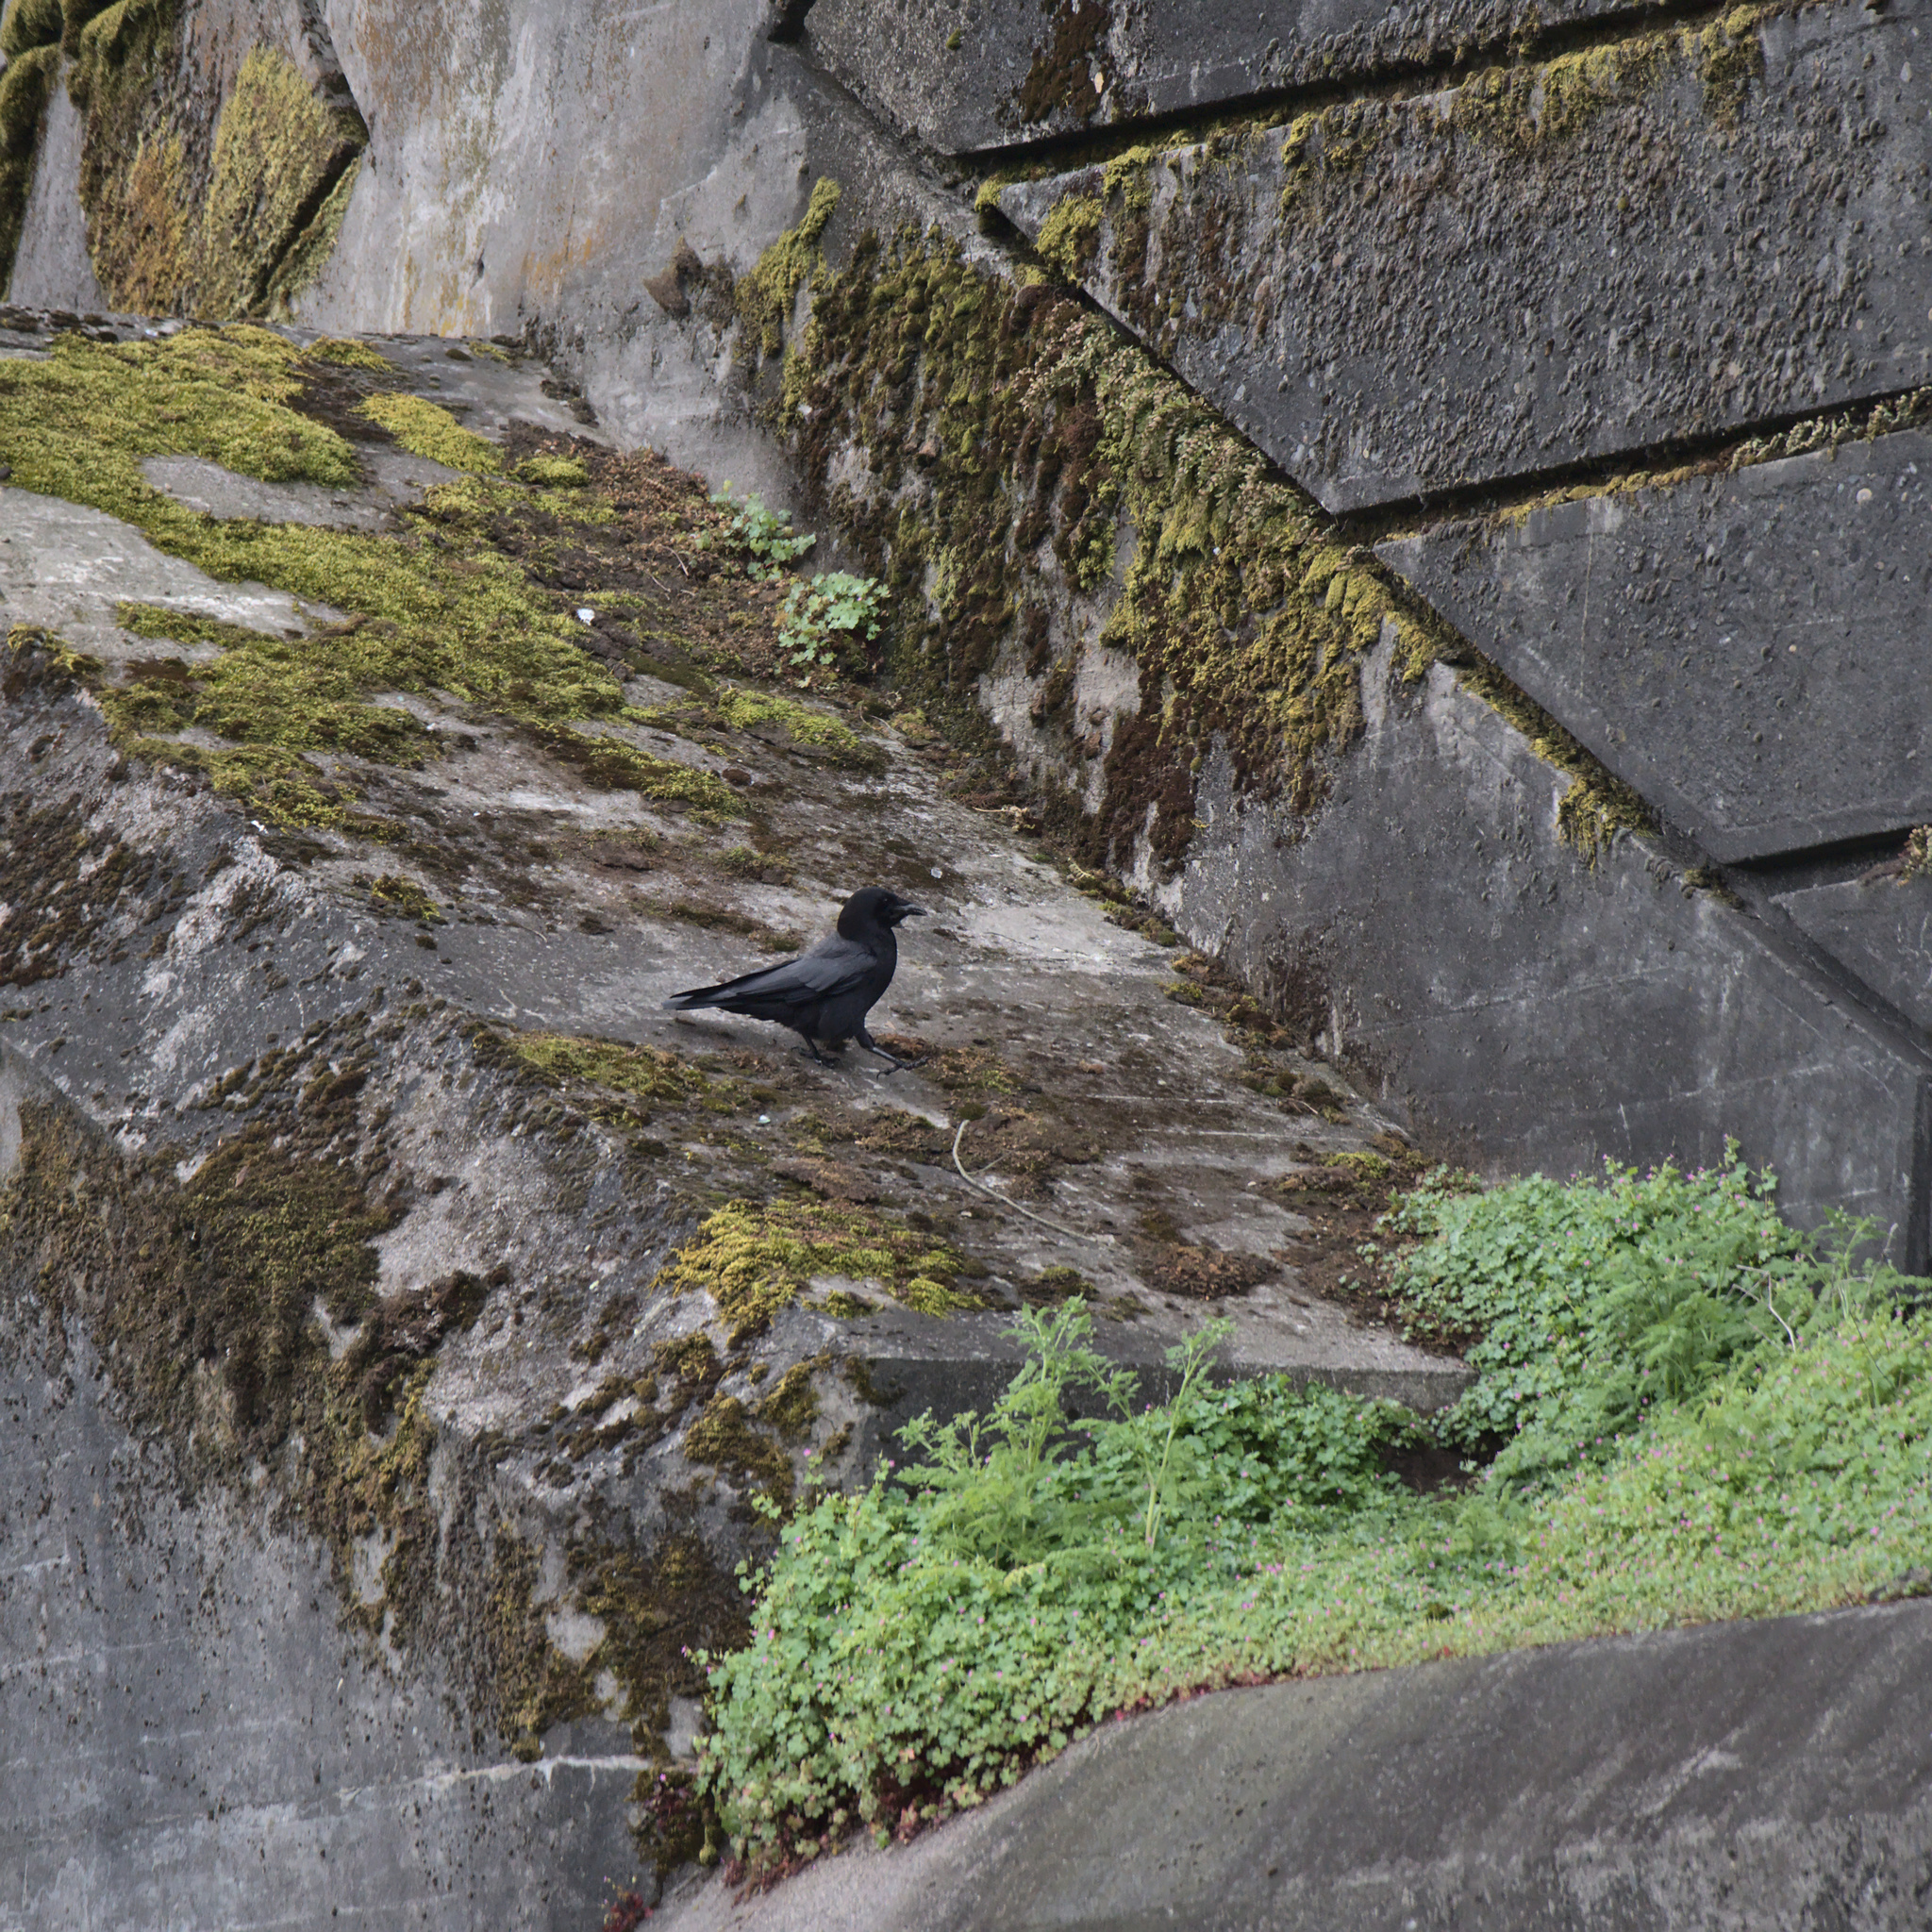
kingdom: Animalia
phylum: Chordata
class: Aves
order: Passeriformes
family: Corvidae
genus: Corvus
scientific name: Corvus brachyrhynchos
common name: American crow
